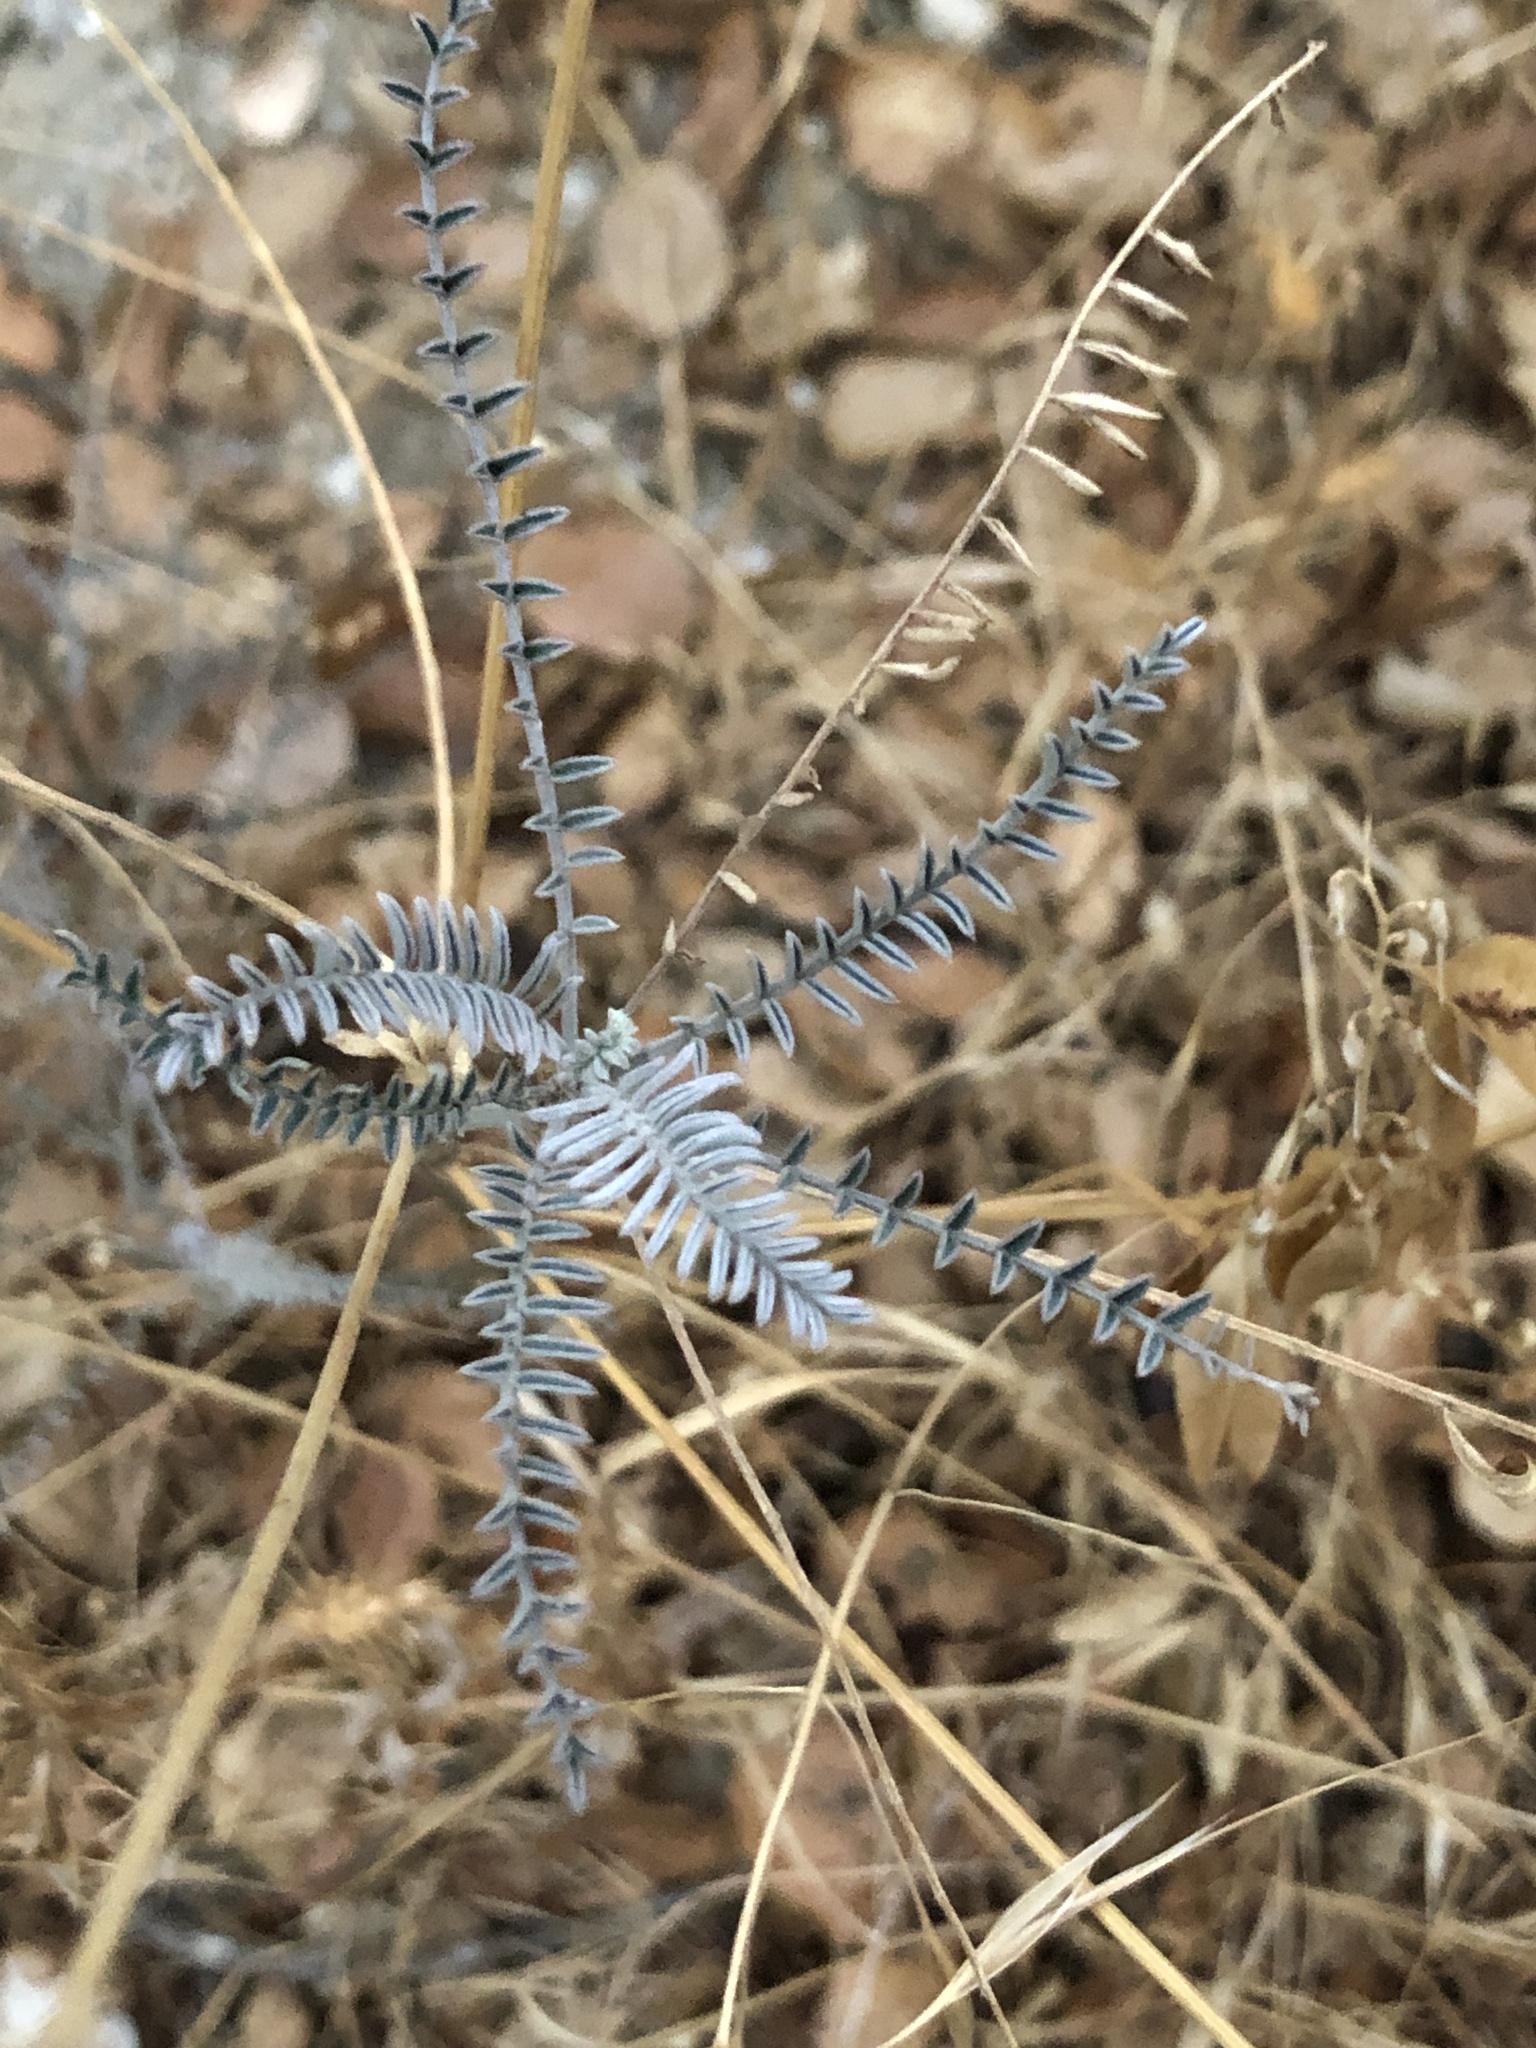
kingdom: Plantae
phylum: Tracheophyta
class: Magnoliopsida
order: Fabales
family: Fabaceae
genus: Astragalus
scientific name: Astragalus trichopodus
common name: Santa barbara milk-vetch
